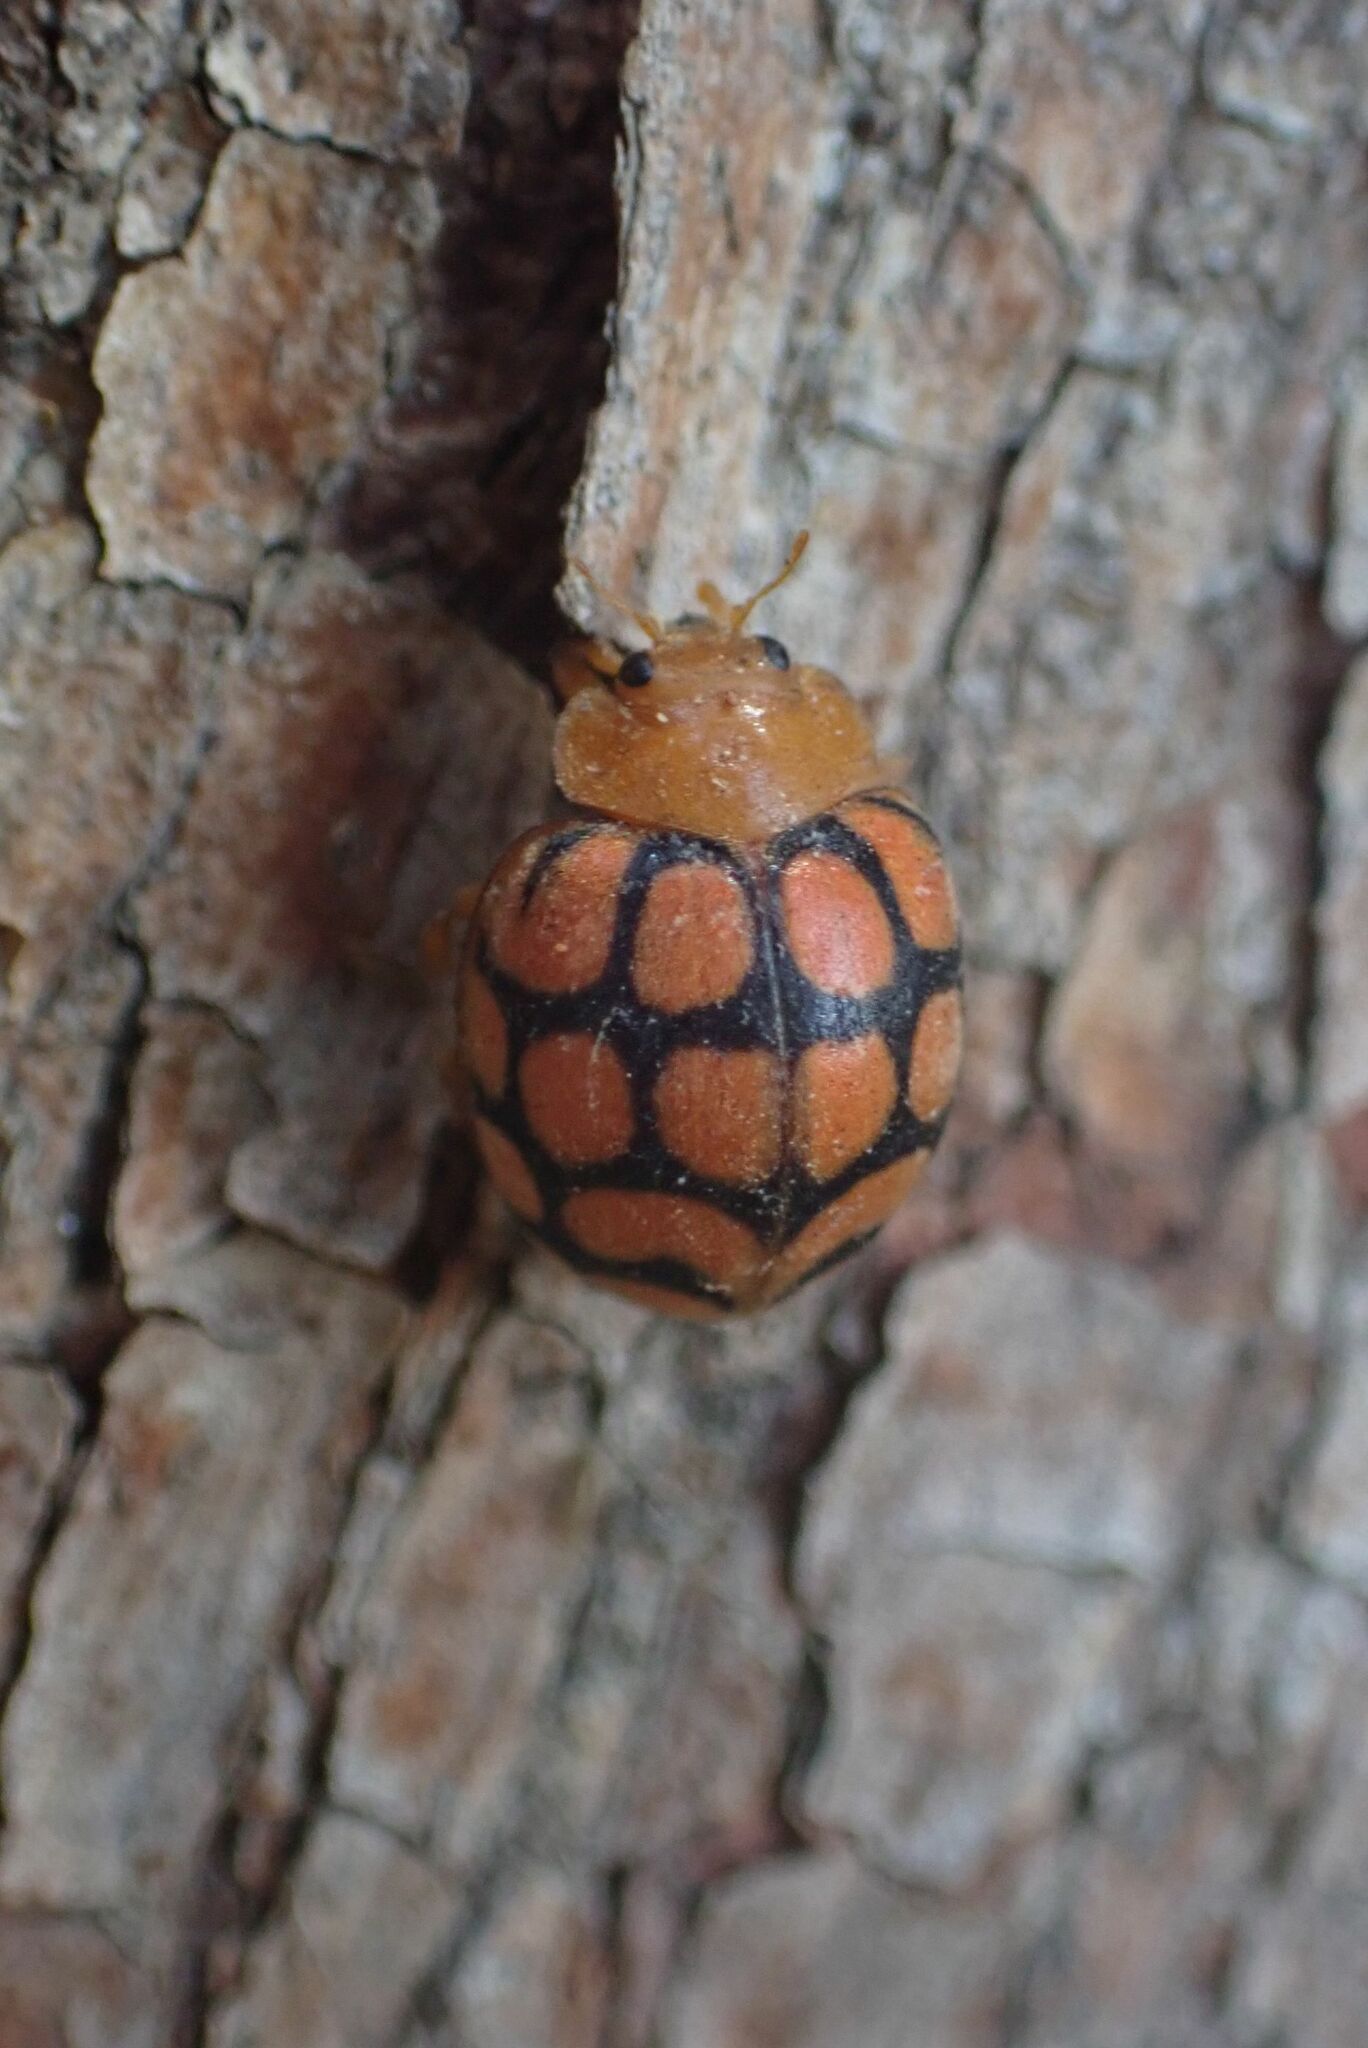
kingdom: Animalia
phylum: Arthropoda
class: Insecta
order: Coleoptera
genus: Solanophila
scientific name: Solanophila
